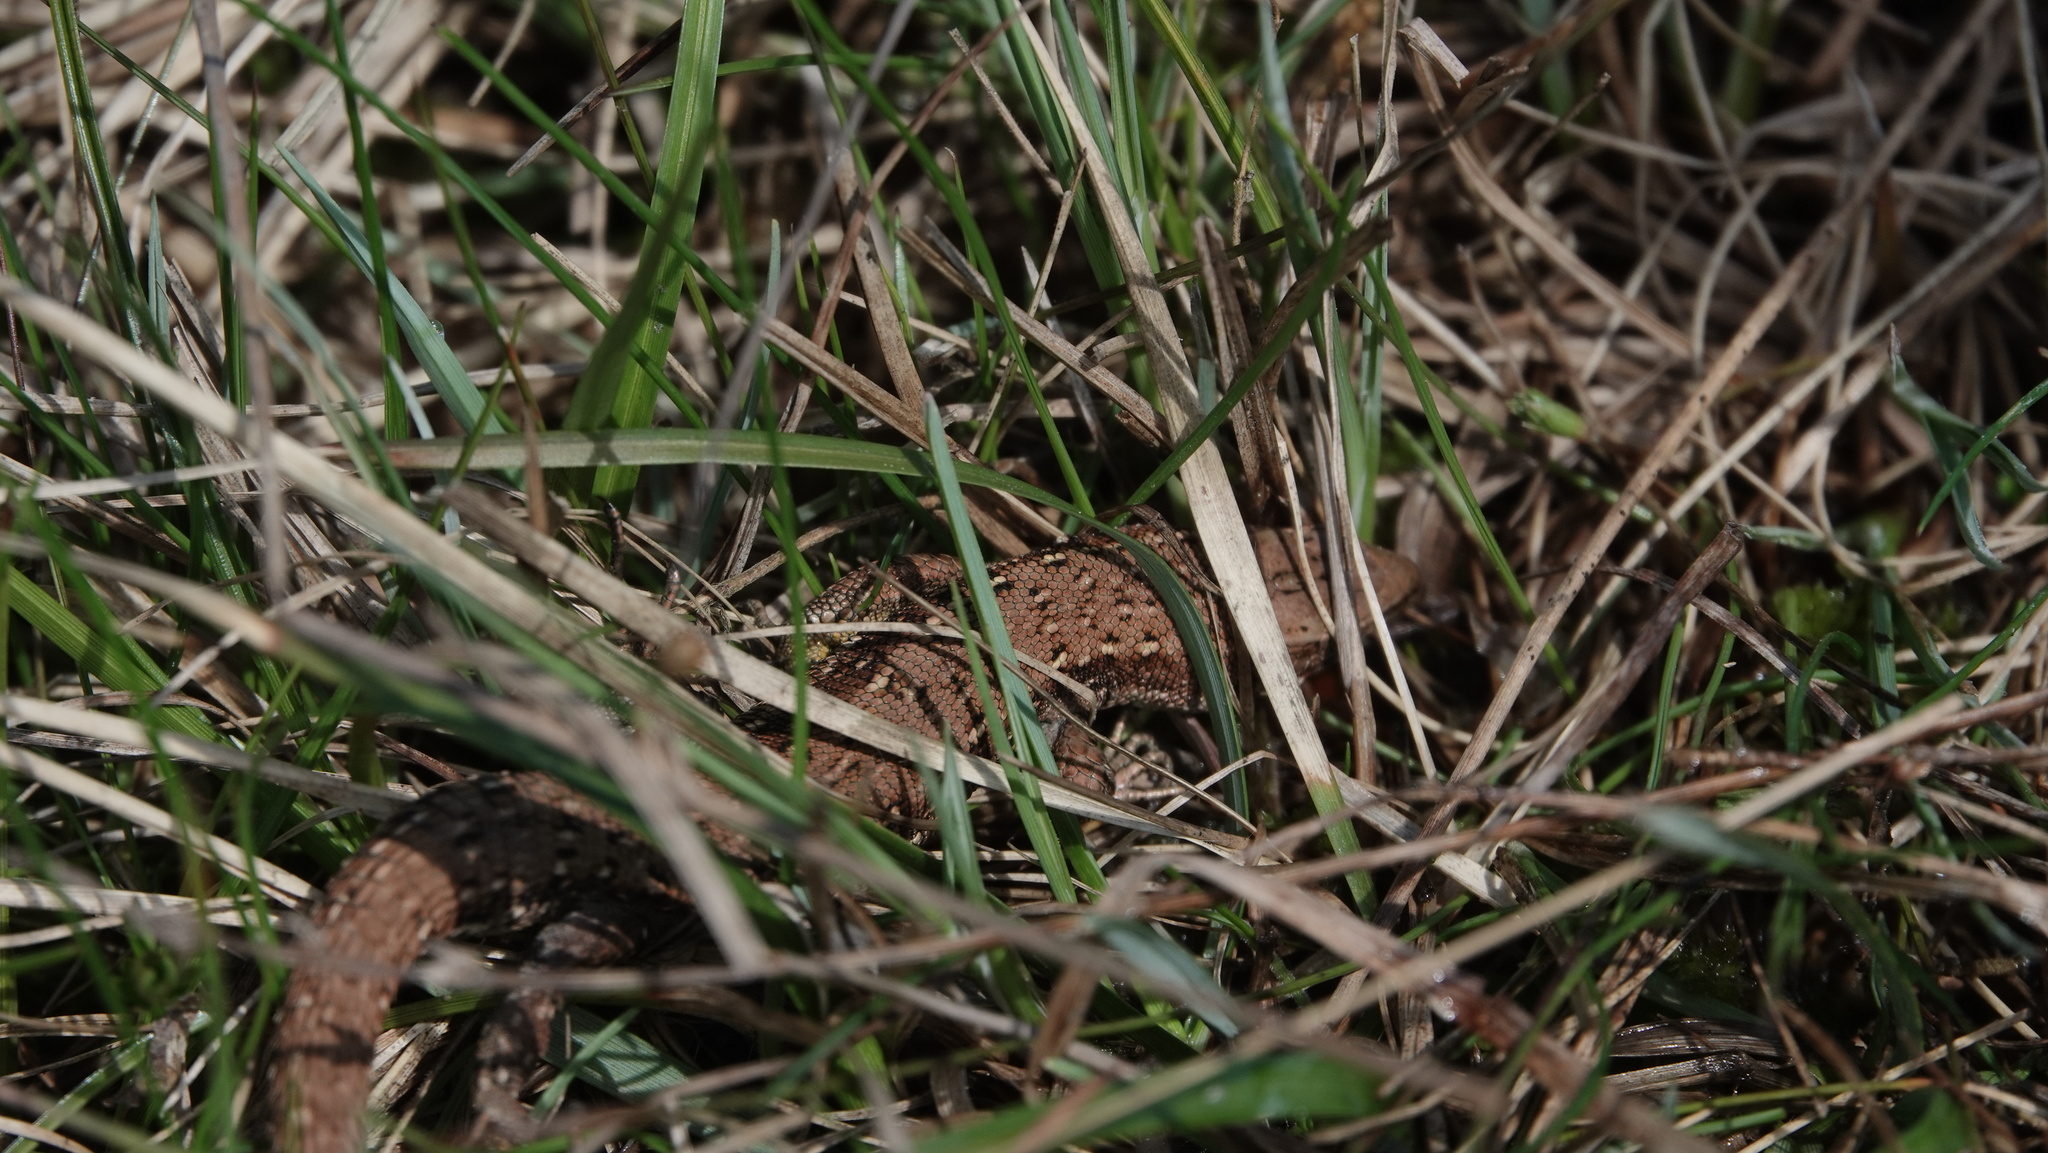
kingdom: Animalia
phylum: Chordata
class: Squamata
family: Lacertidae
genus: Zootoca
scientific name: Zootoca vivipara
